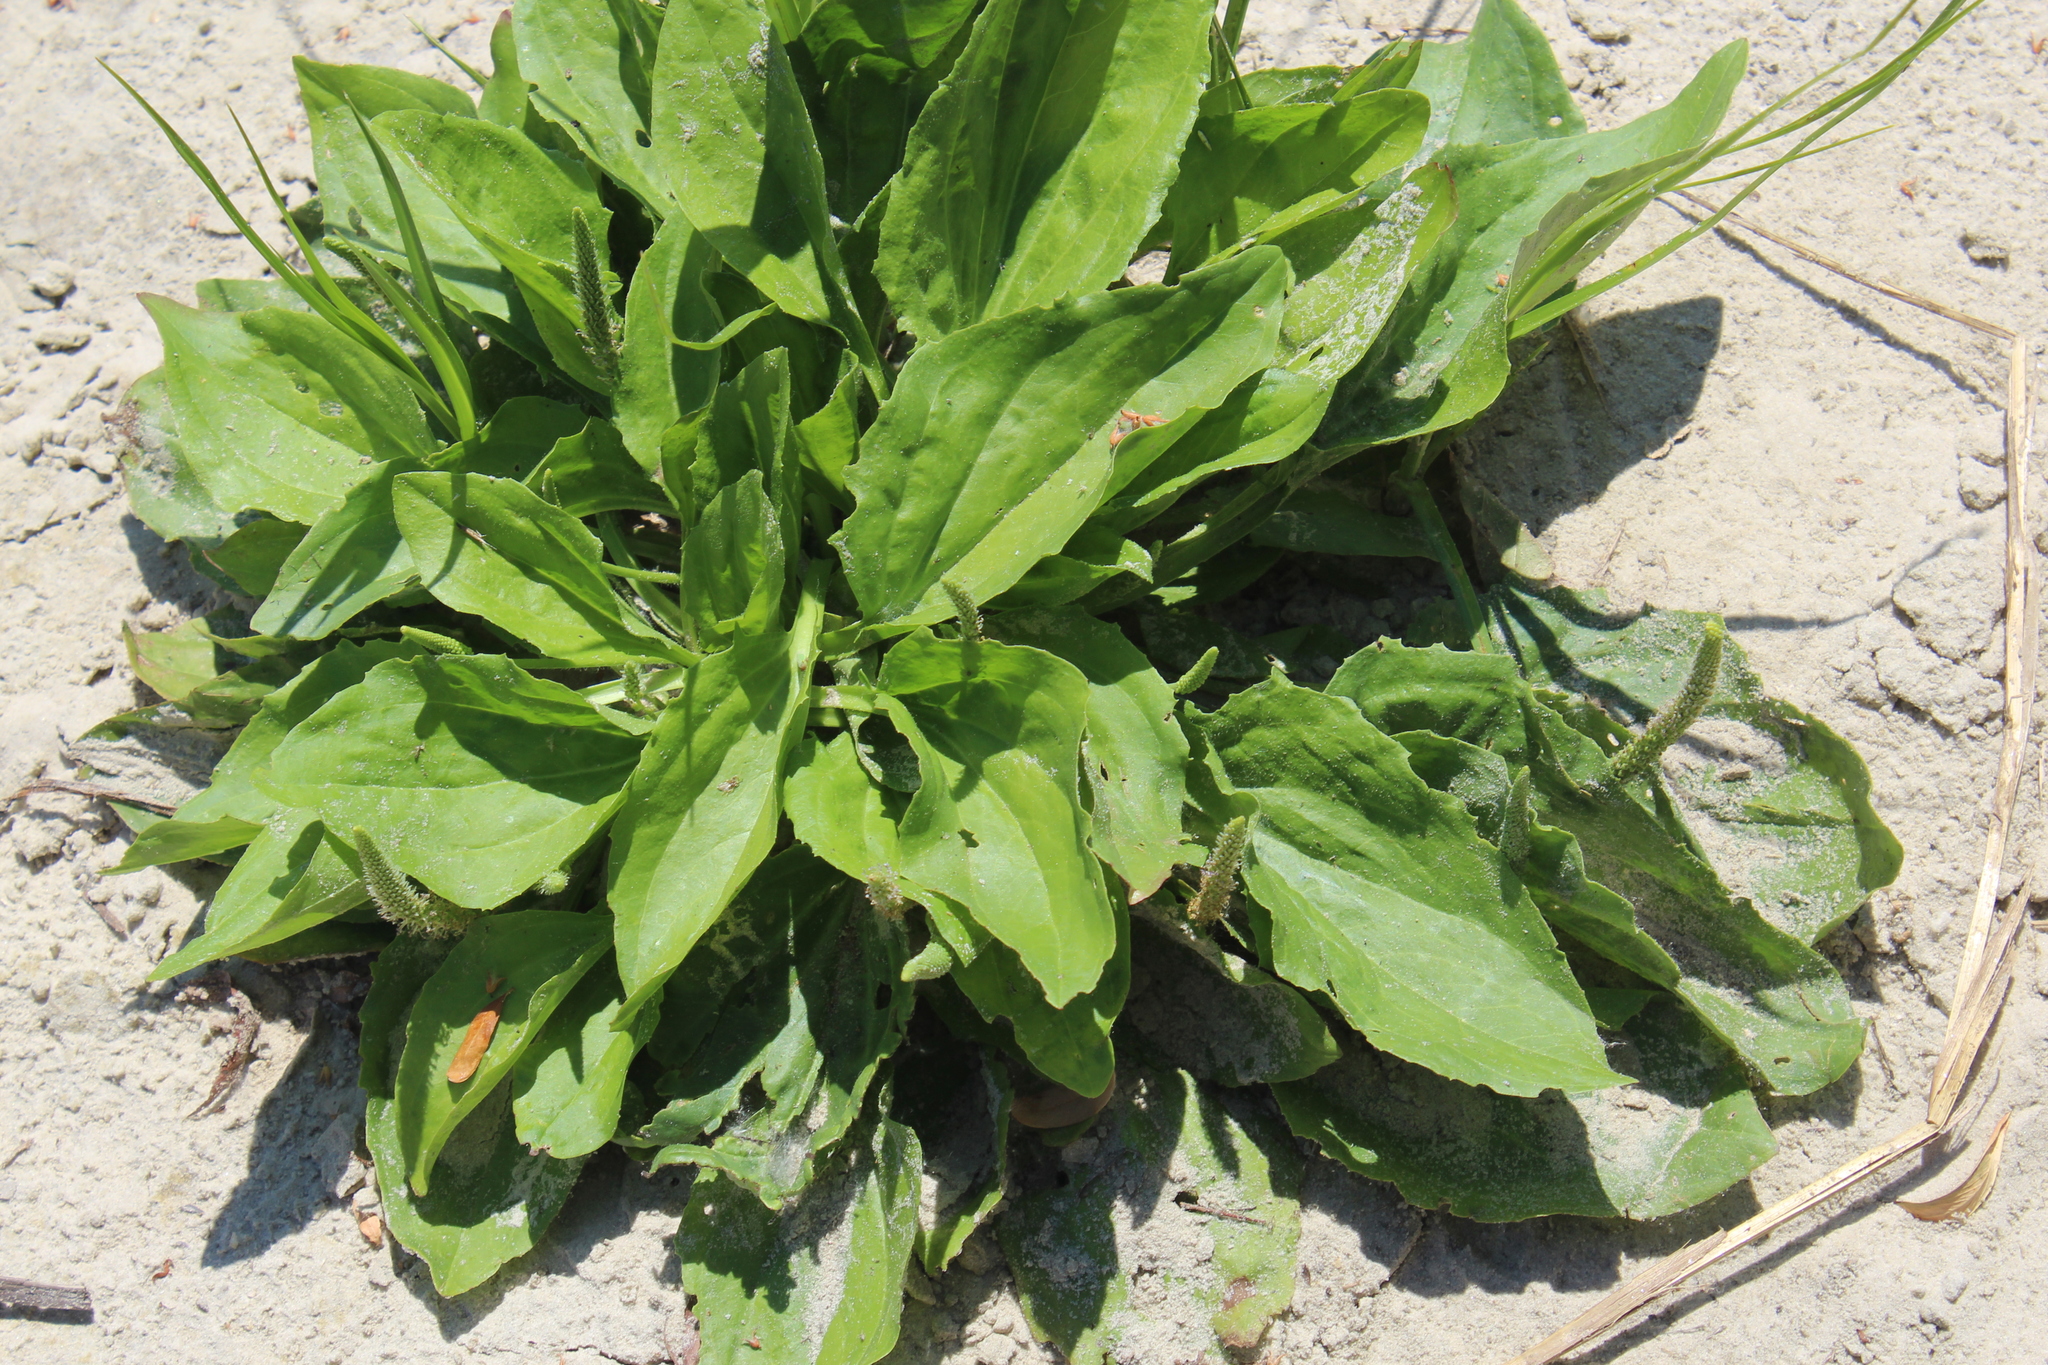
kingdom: Plantae
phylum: Tracheophyta
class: Magnoliopsida
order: Lamiales
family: Plantaginaceae
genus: Plantago
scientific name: Plantago uliginosa
